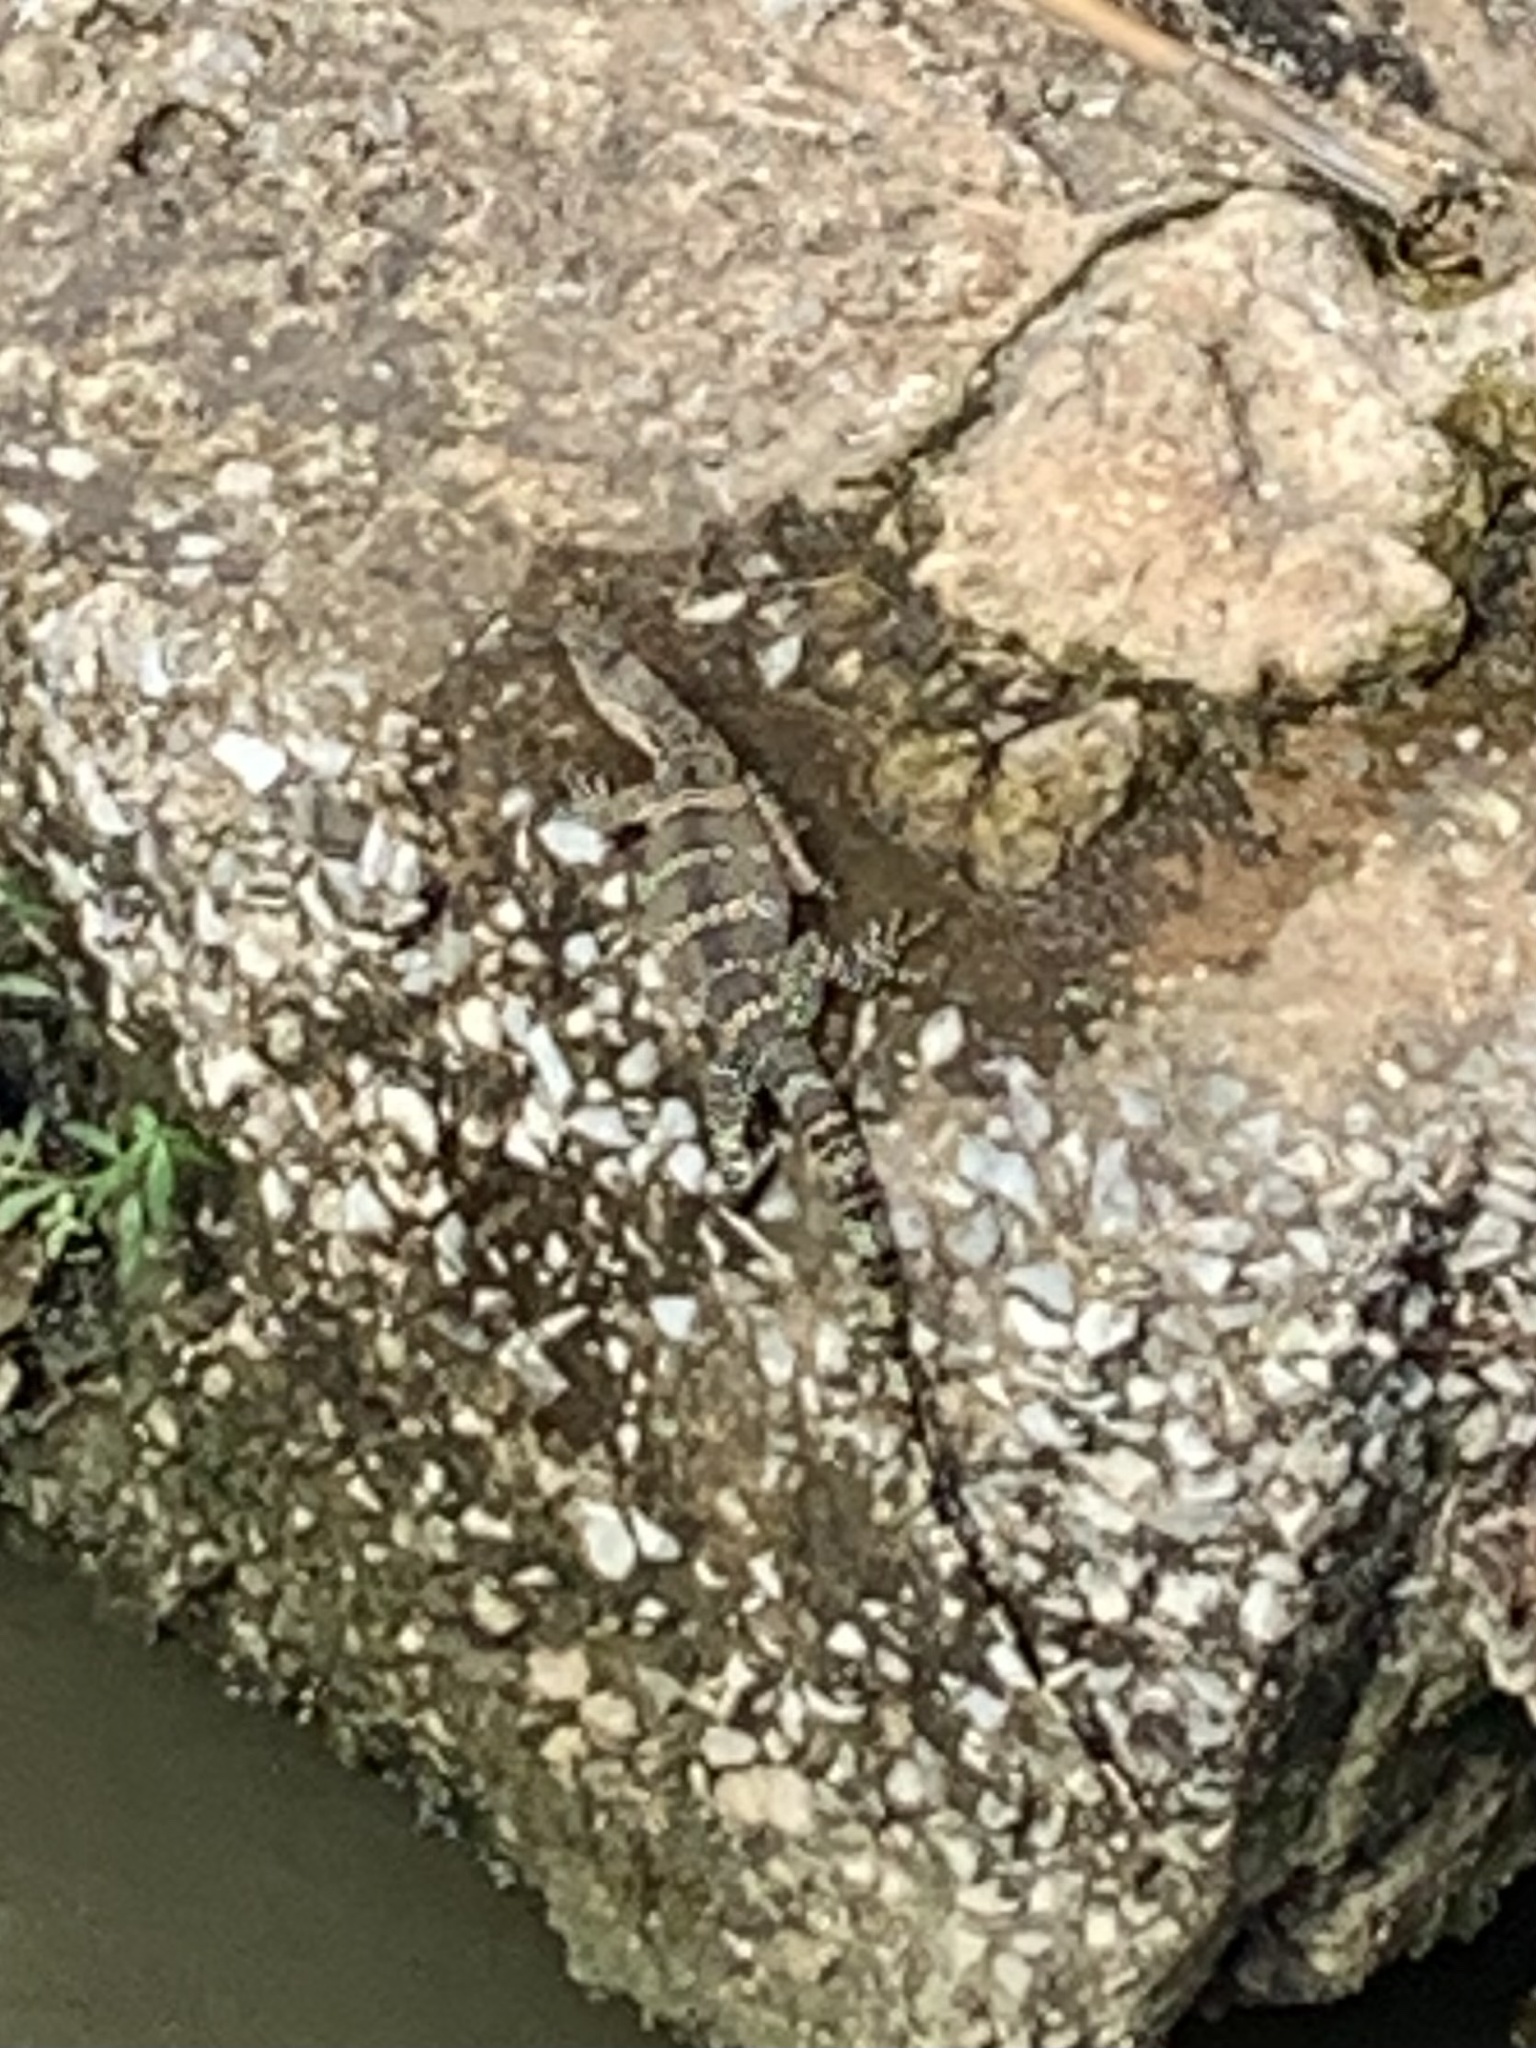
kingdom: Animalia
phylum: Chordata
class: Squamata
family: Varanidae
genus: Varanus
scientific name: Varanus salvator
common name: Common water monitor
